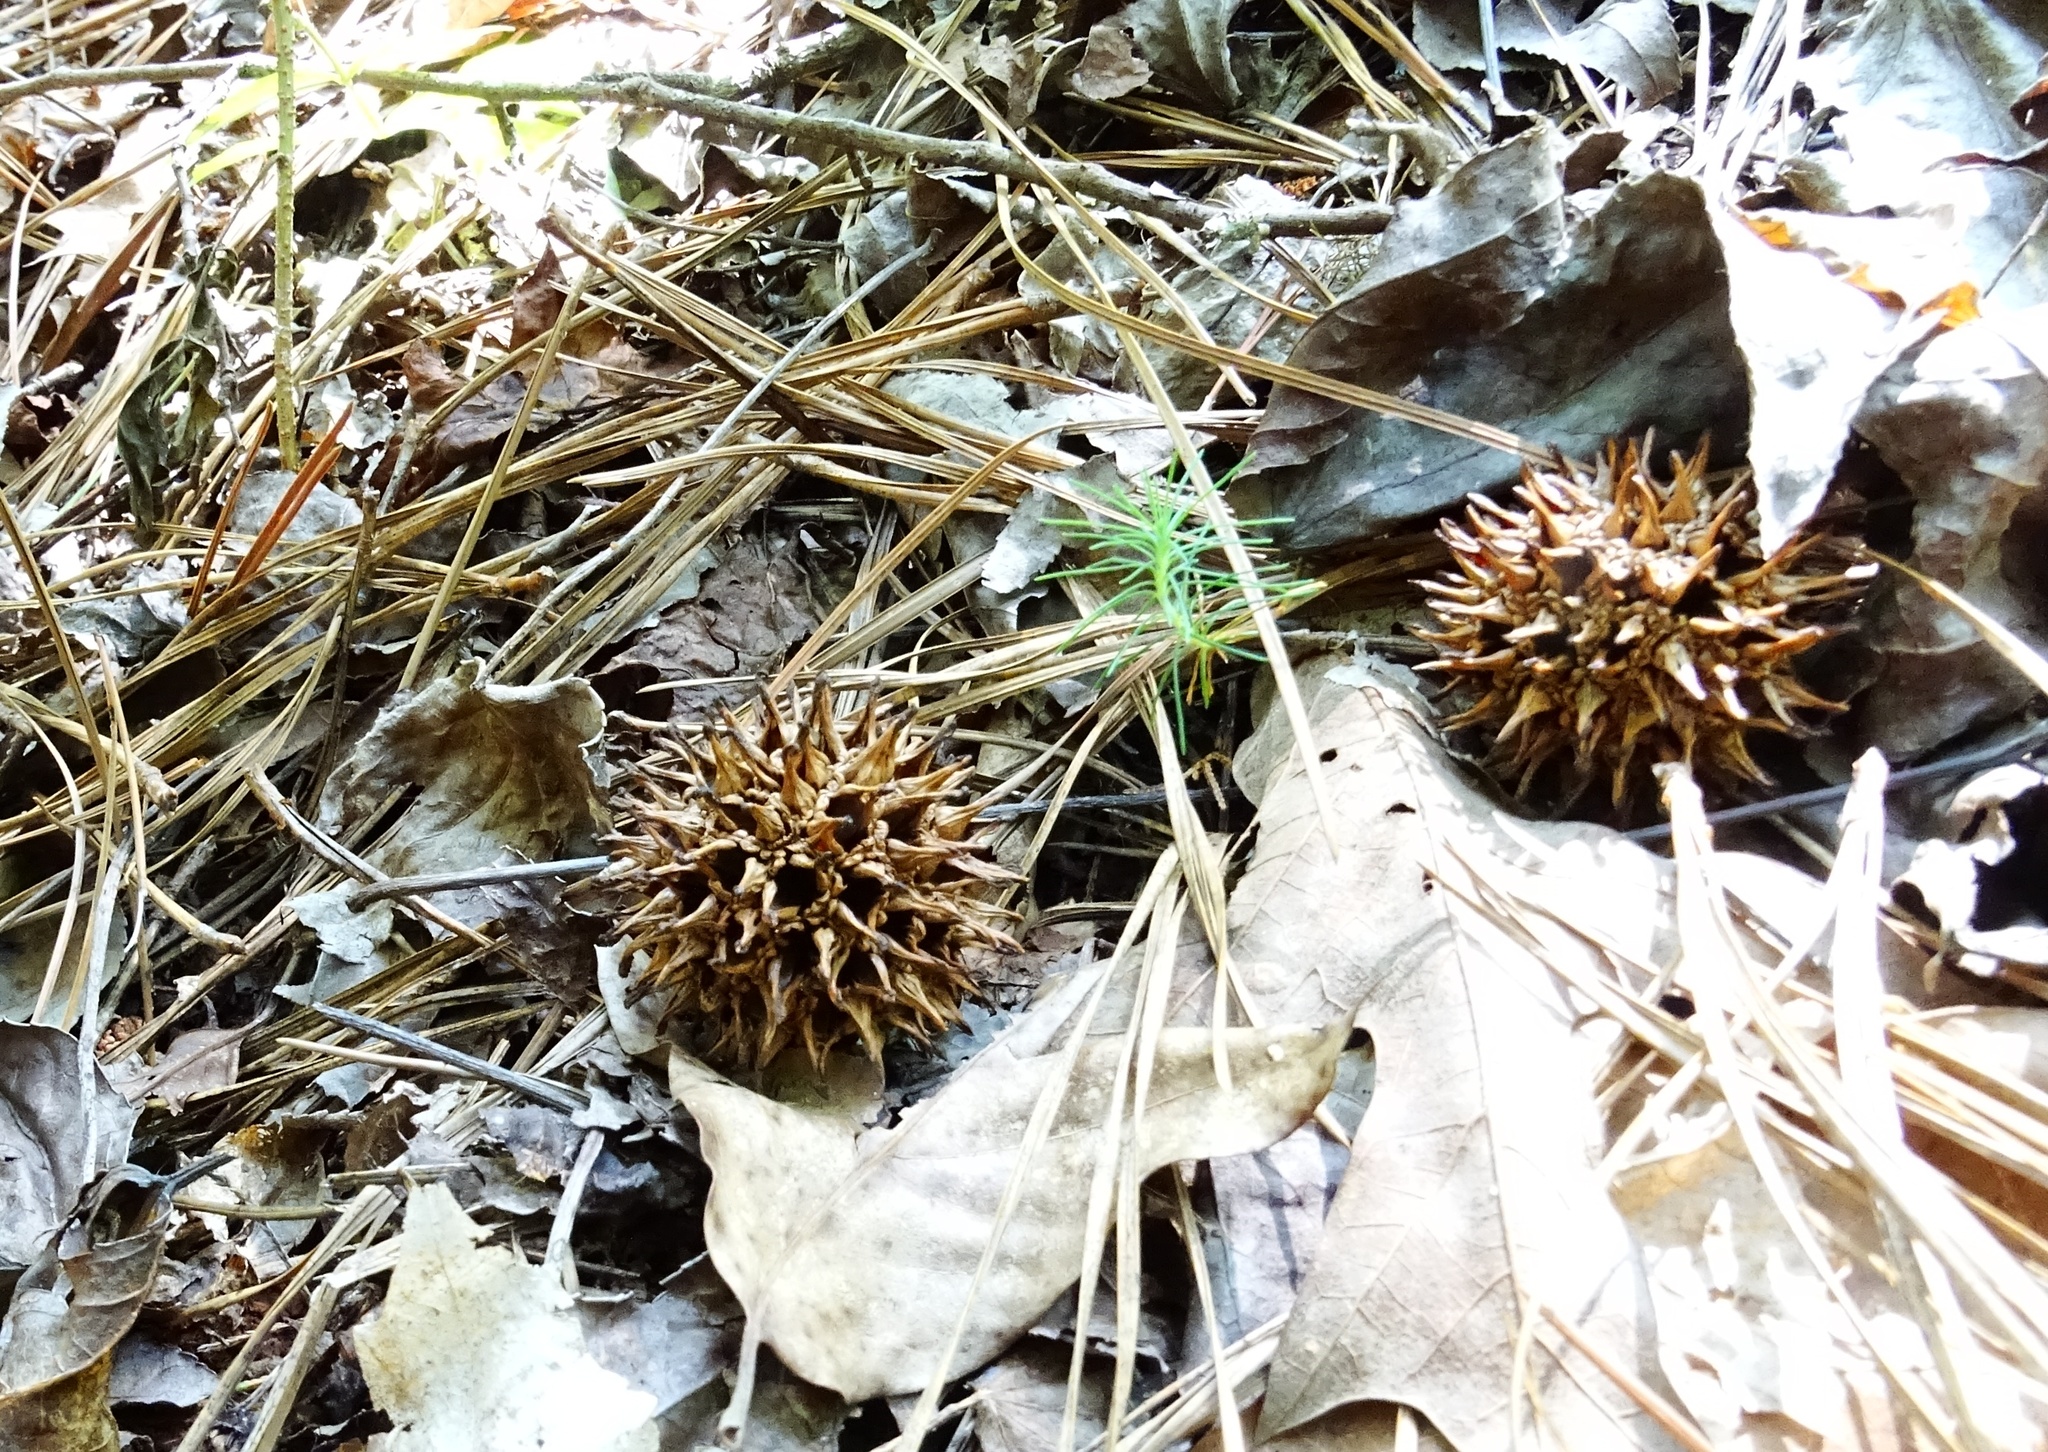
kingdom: Plantae
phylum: Tracheophyta
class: Magnoliopsida
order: Saxifragales
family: Altingiaceae
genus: Liquidambar
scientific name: Liquidambar styraciflua
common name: Sweet gum
